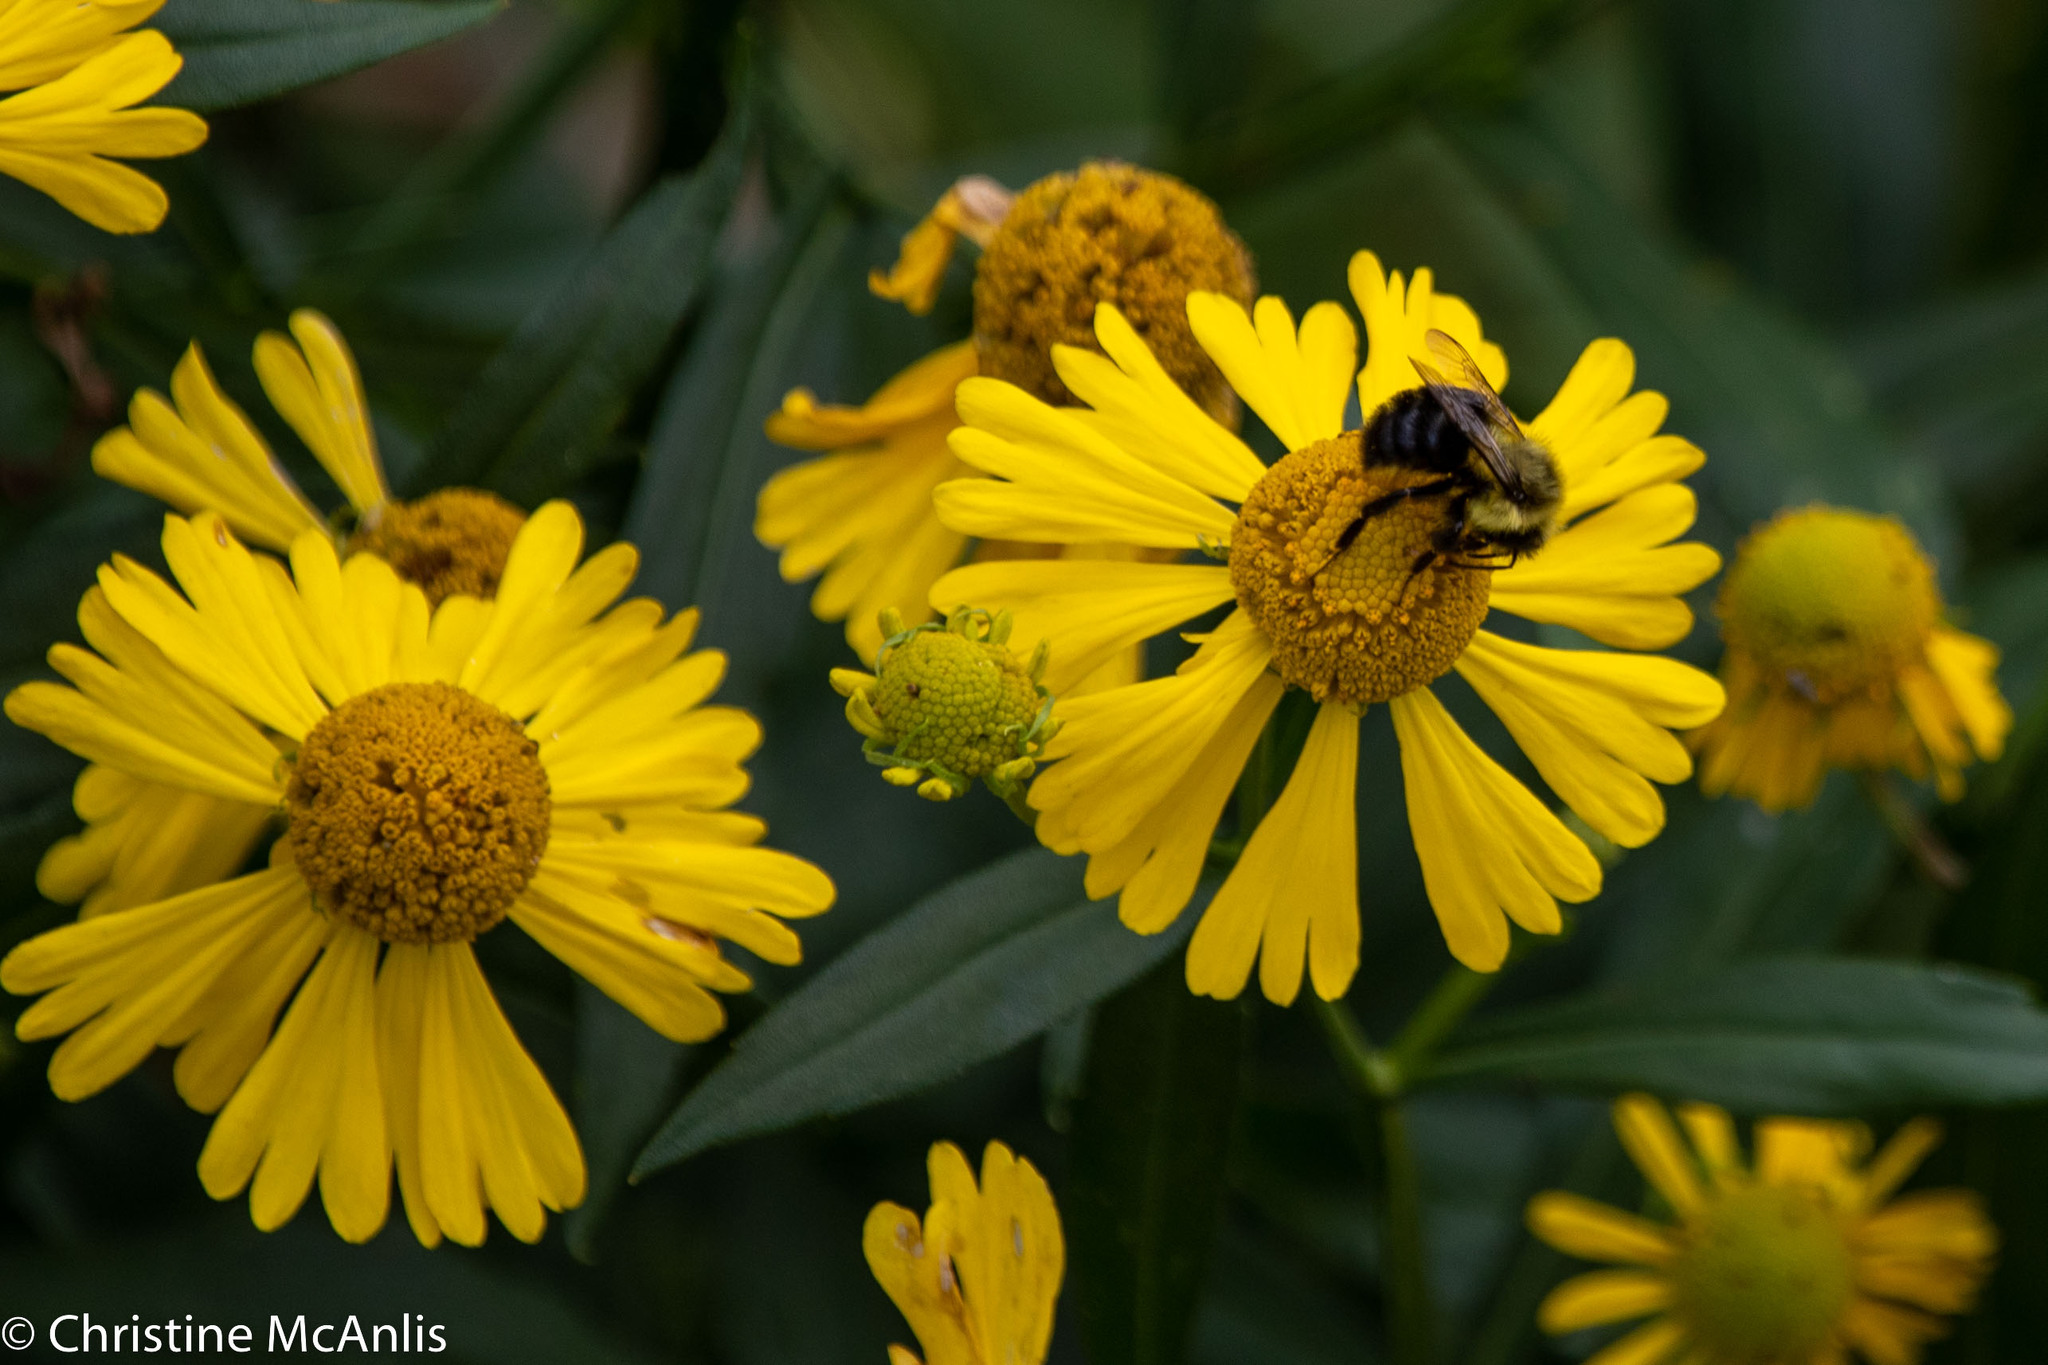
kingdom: Plantae
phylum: Tracheophyta
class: Magnoliopsida
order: Asterales
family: Asteraceae
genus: Helenium
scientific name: Helenium autumnale
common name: Sneezeweed
